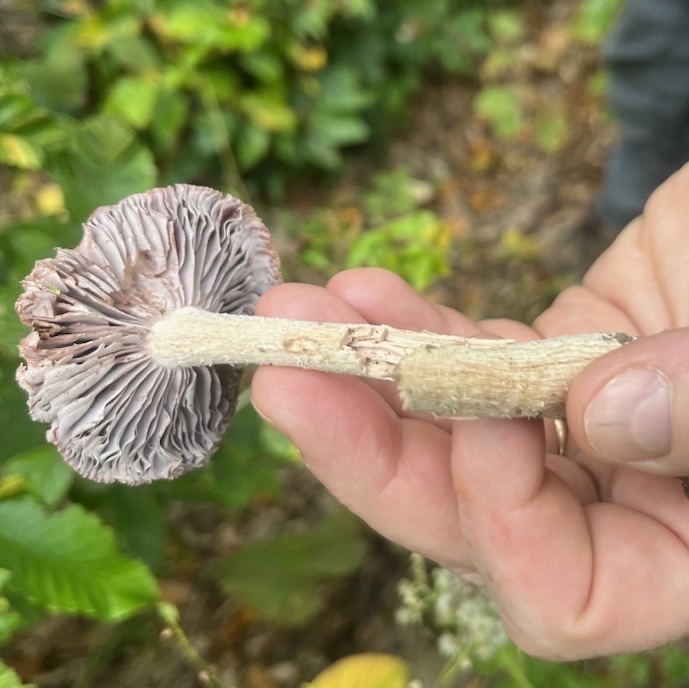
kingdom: Fungi
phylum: Basidiomycota
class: Agaricomycetes
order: Agaricales
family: Hydnangiaceae
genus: Laccaria
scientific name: Laccaria ochropurpurea
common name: Purple laccaria
